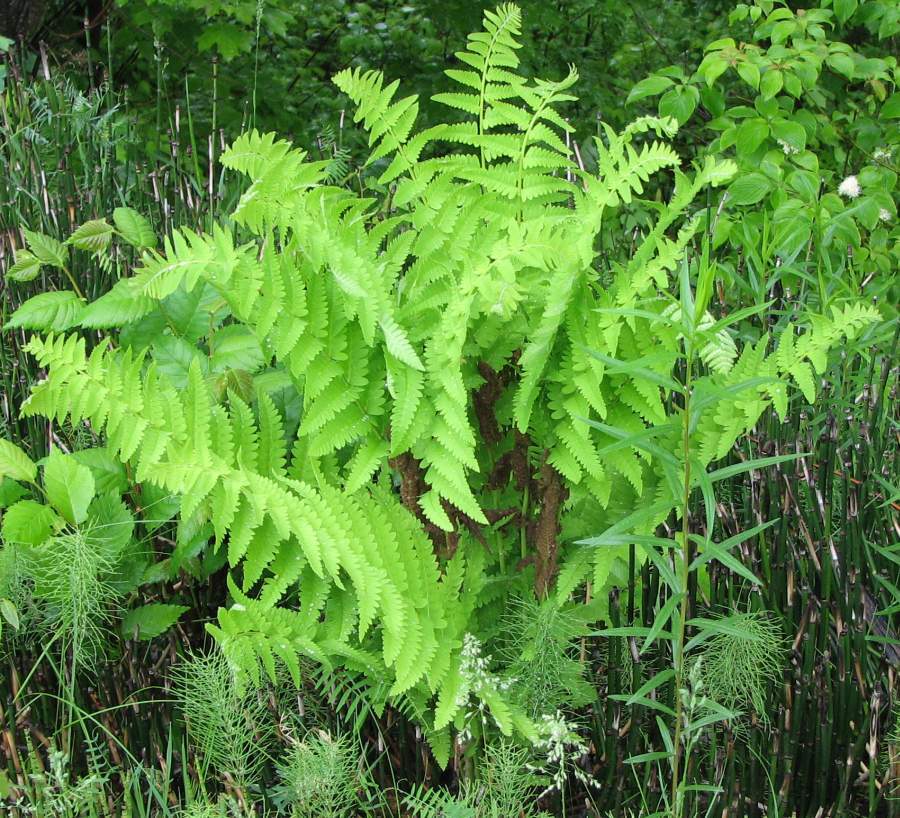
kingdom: Plantae
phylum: Tracheophyta
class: Polypodiopsida
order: Osmundales
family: Osmundaceae
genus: Claytosmunda
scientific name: Claytosmunda claytoniana
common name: Clayton's fern
